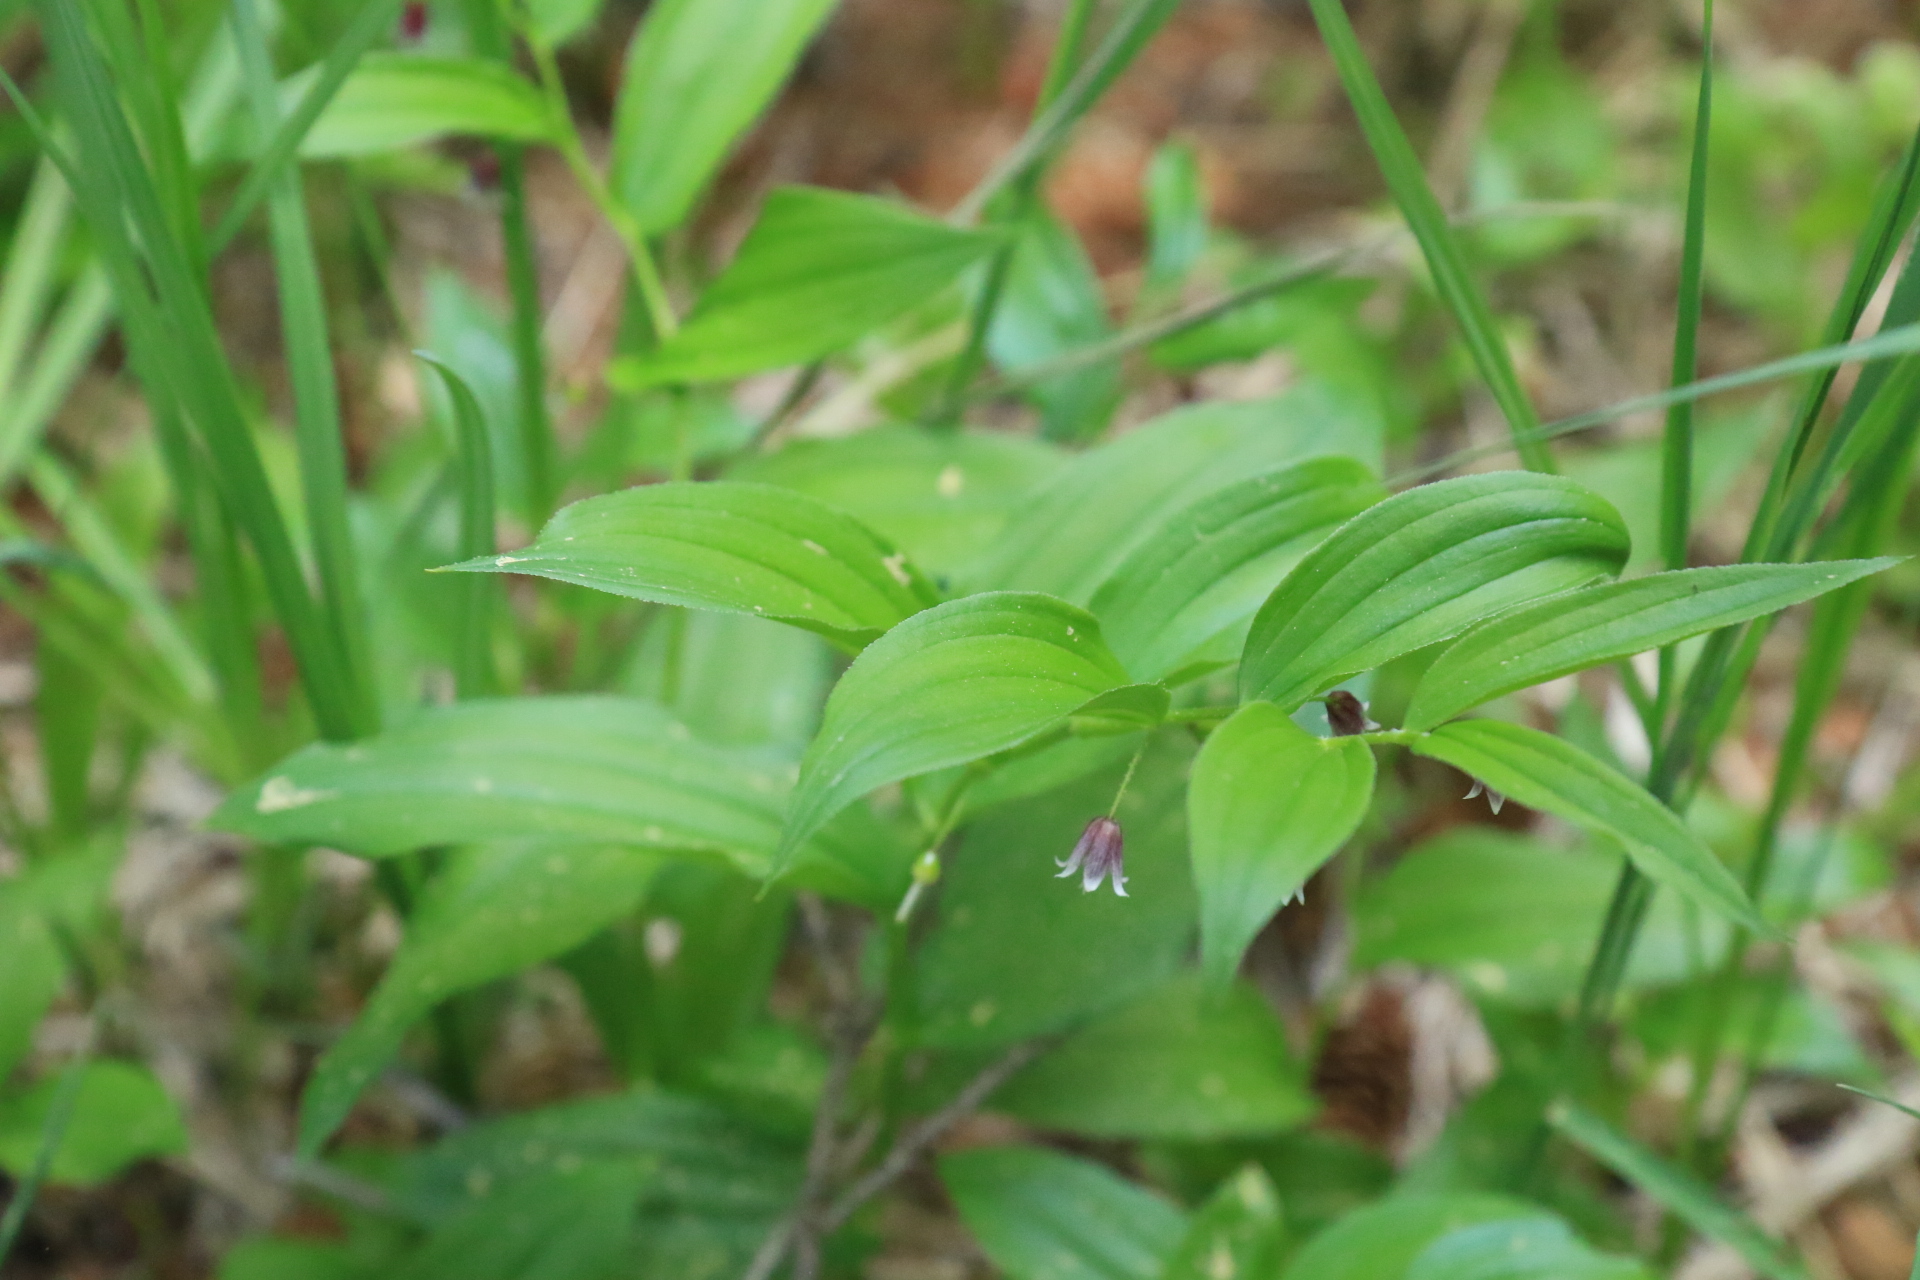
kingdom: Plantae
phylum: Tracheophyta
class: Liliopsida
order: Liliales
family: Liliaceae
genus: Streptopus
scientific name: Streptopus lanceolatus
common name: Rose mandarin
